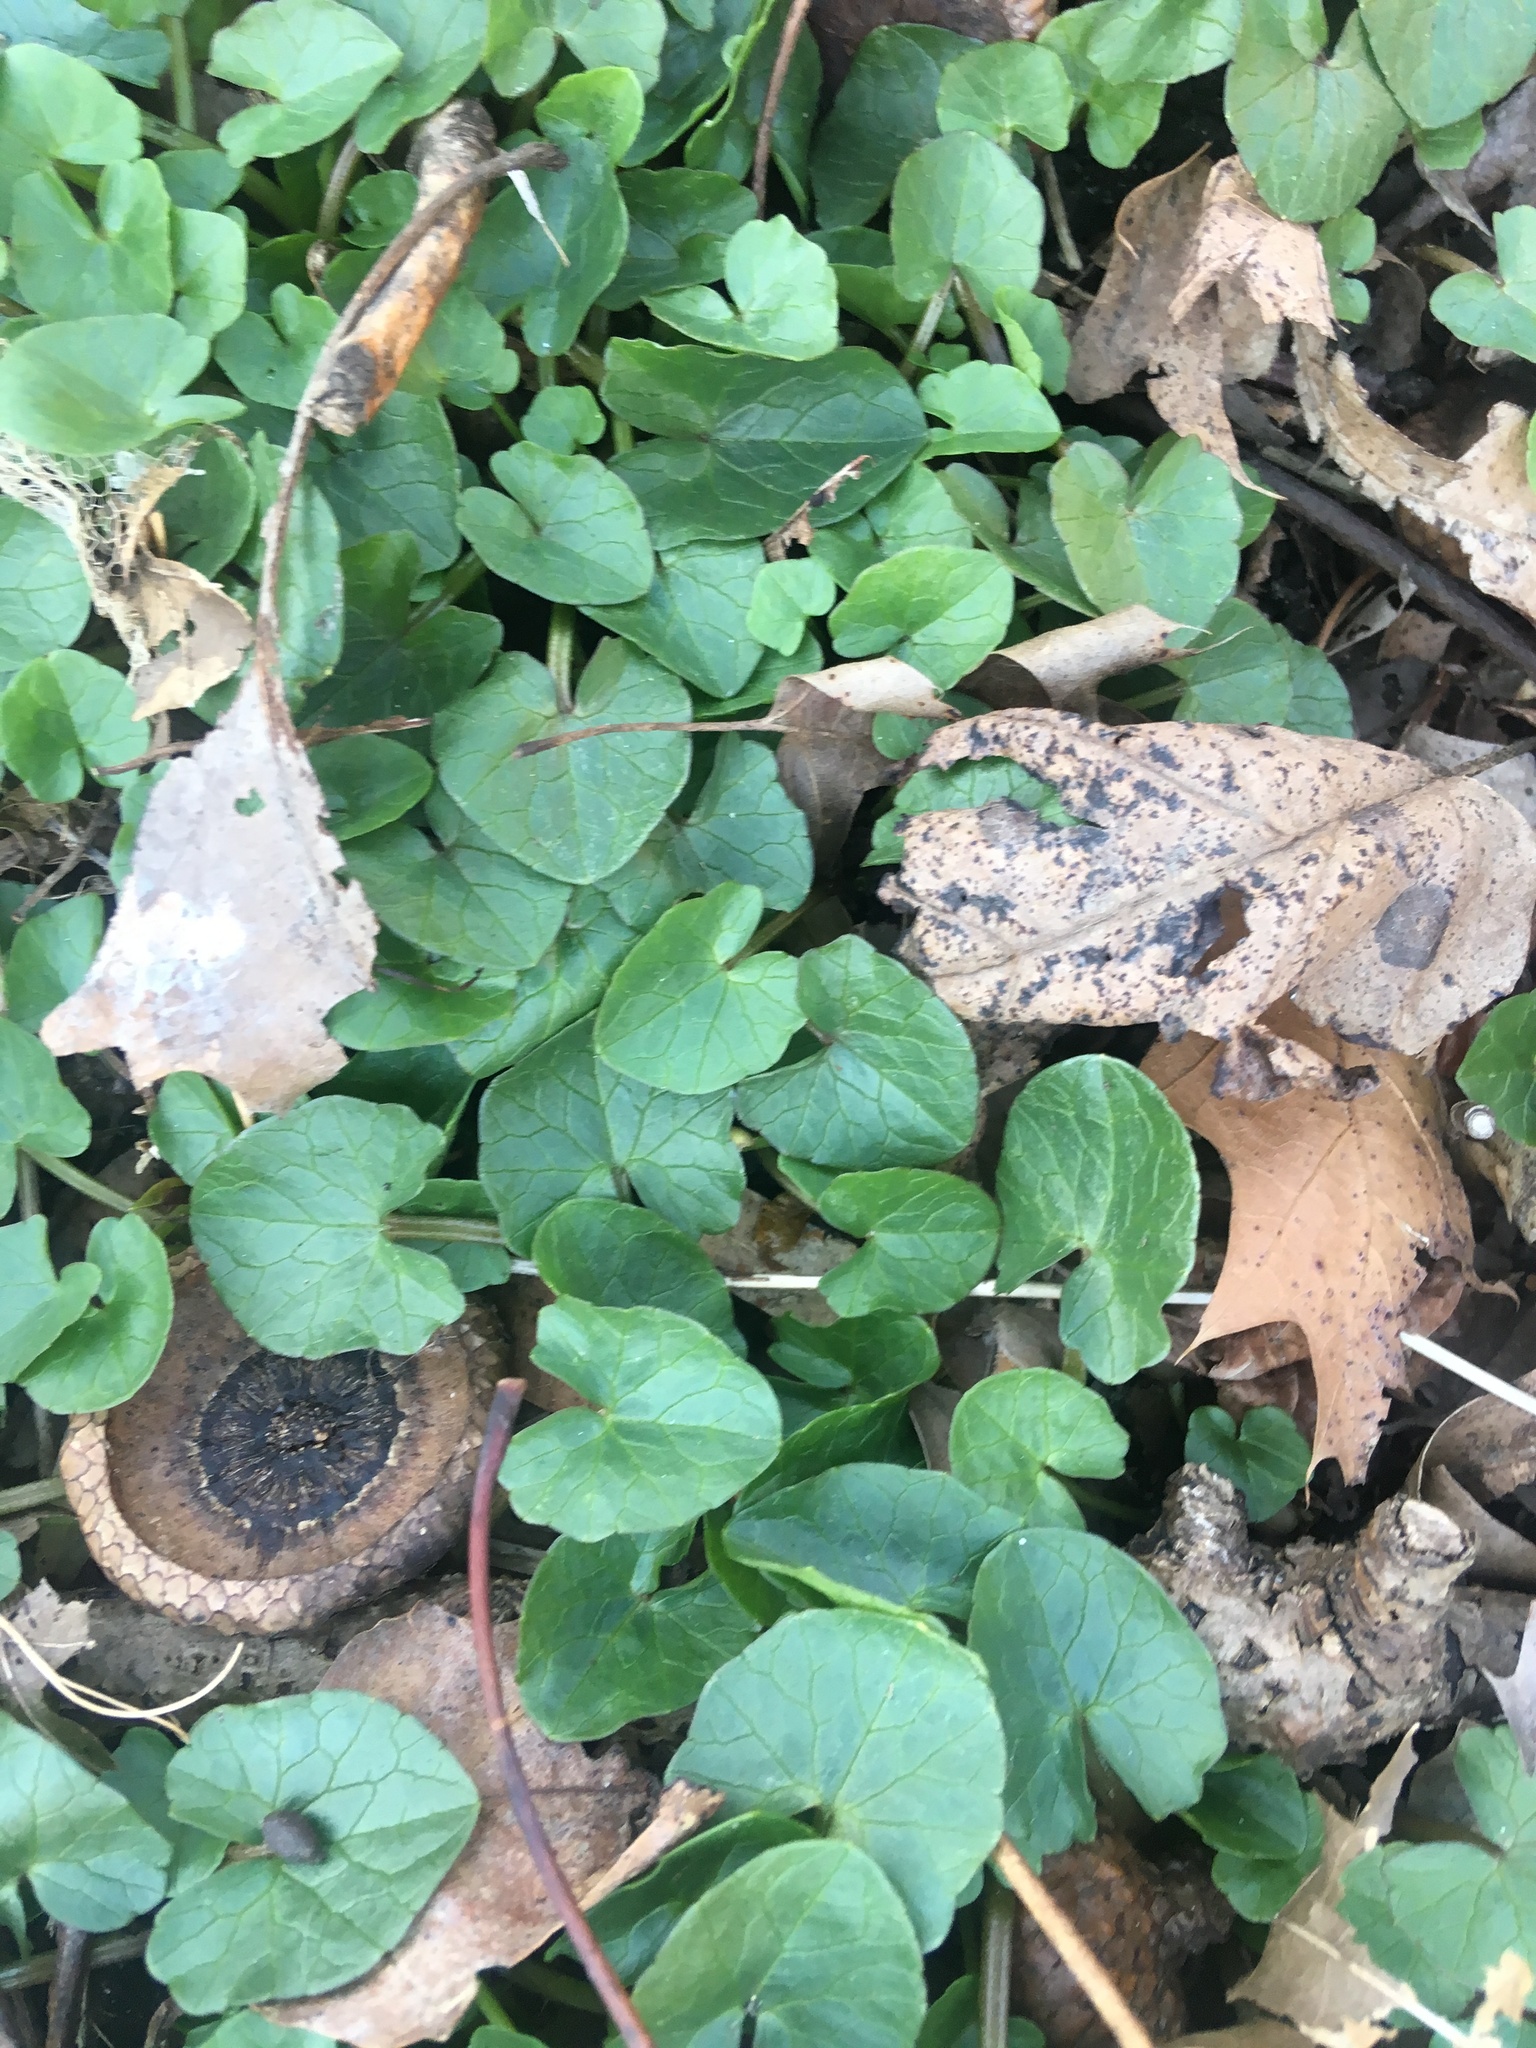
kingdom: Plantae
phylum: Tracheophyta
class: Magnoliopsida
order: Ranunculales
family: Ranunculaceae
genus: Ficaria
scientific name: Ficaria verna
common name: Lesser celandine
